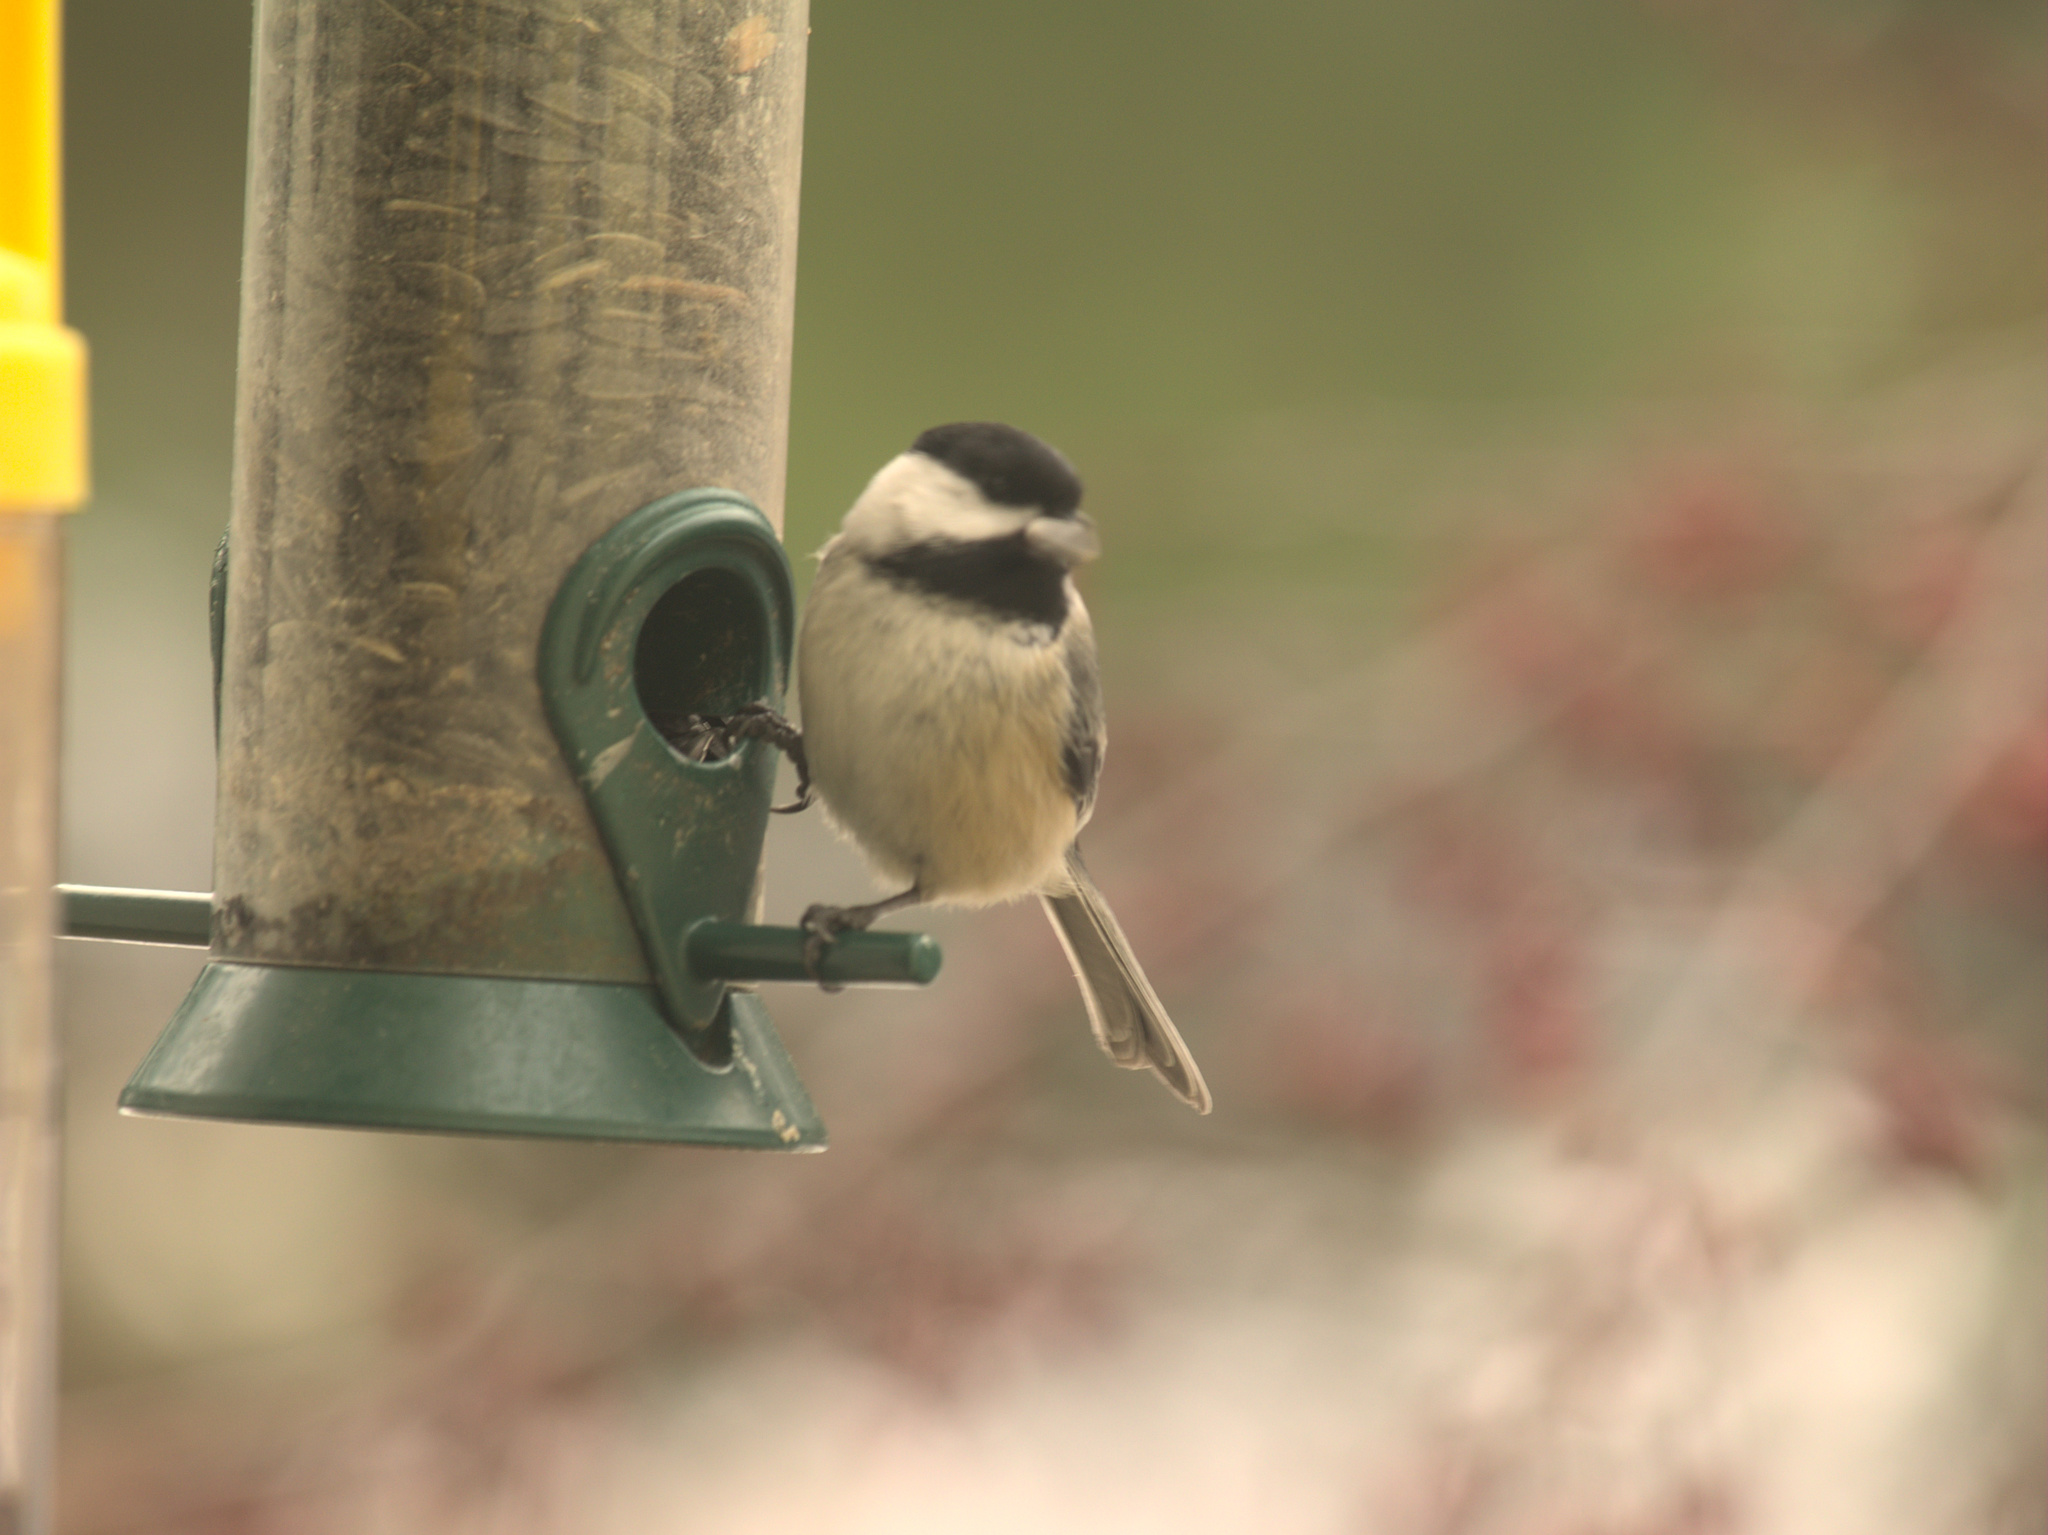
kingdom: Animalia
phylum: Chordata
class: Aves
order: Passeriformes
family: Paridae
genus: Poecile
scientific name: Poecile atricapillus
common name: Black-capped chickadee
